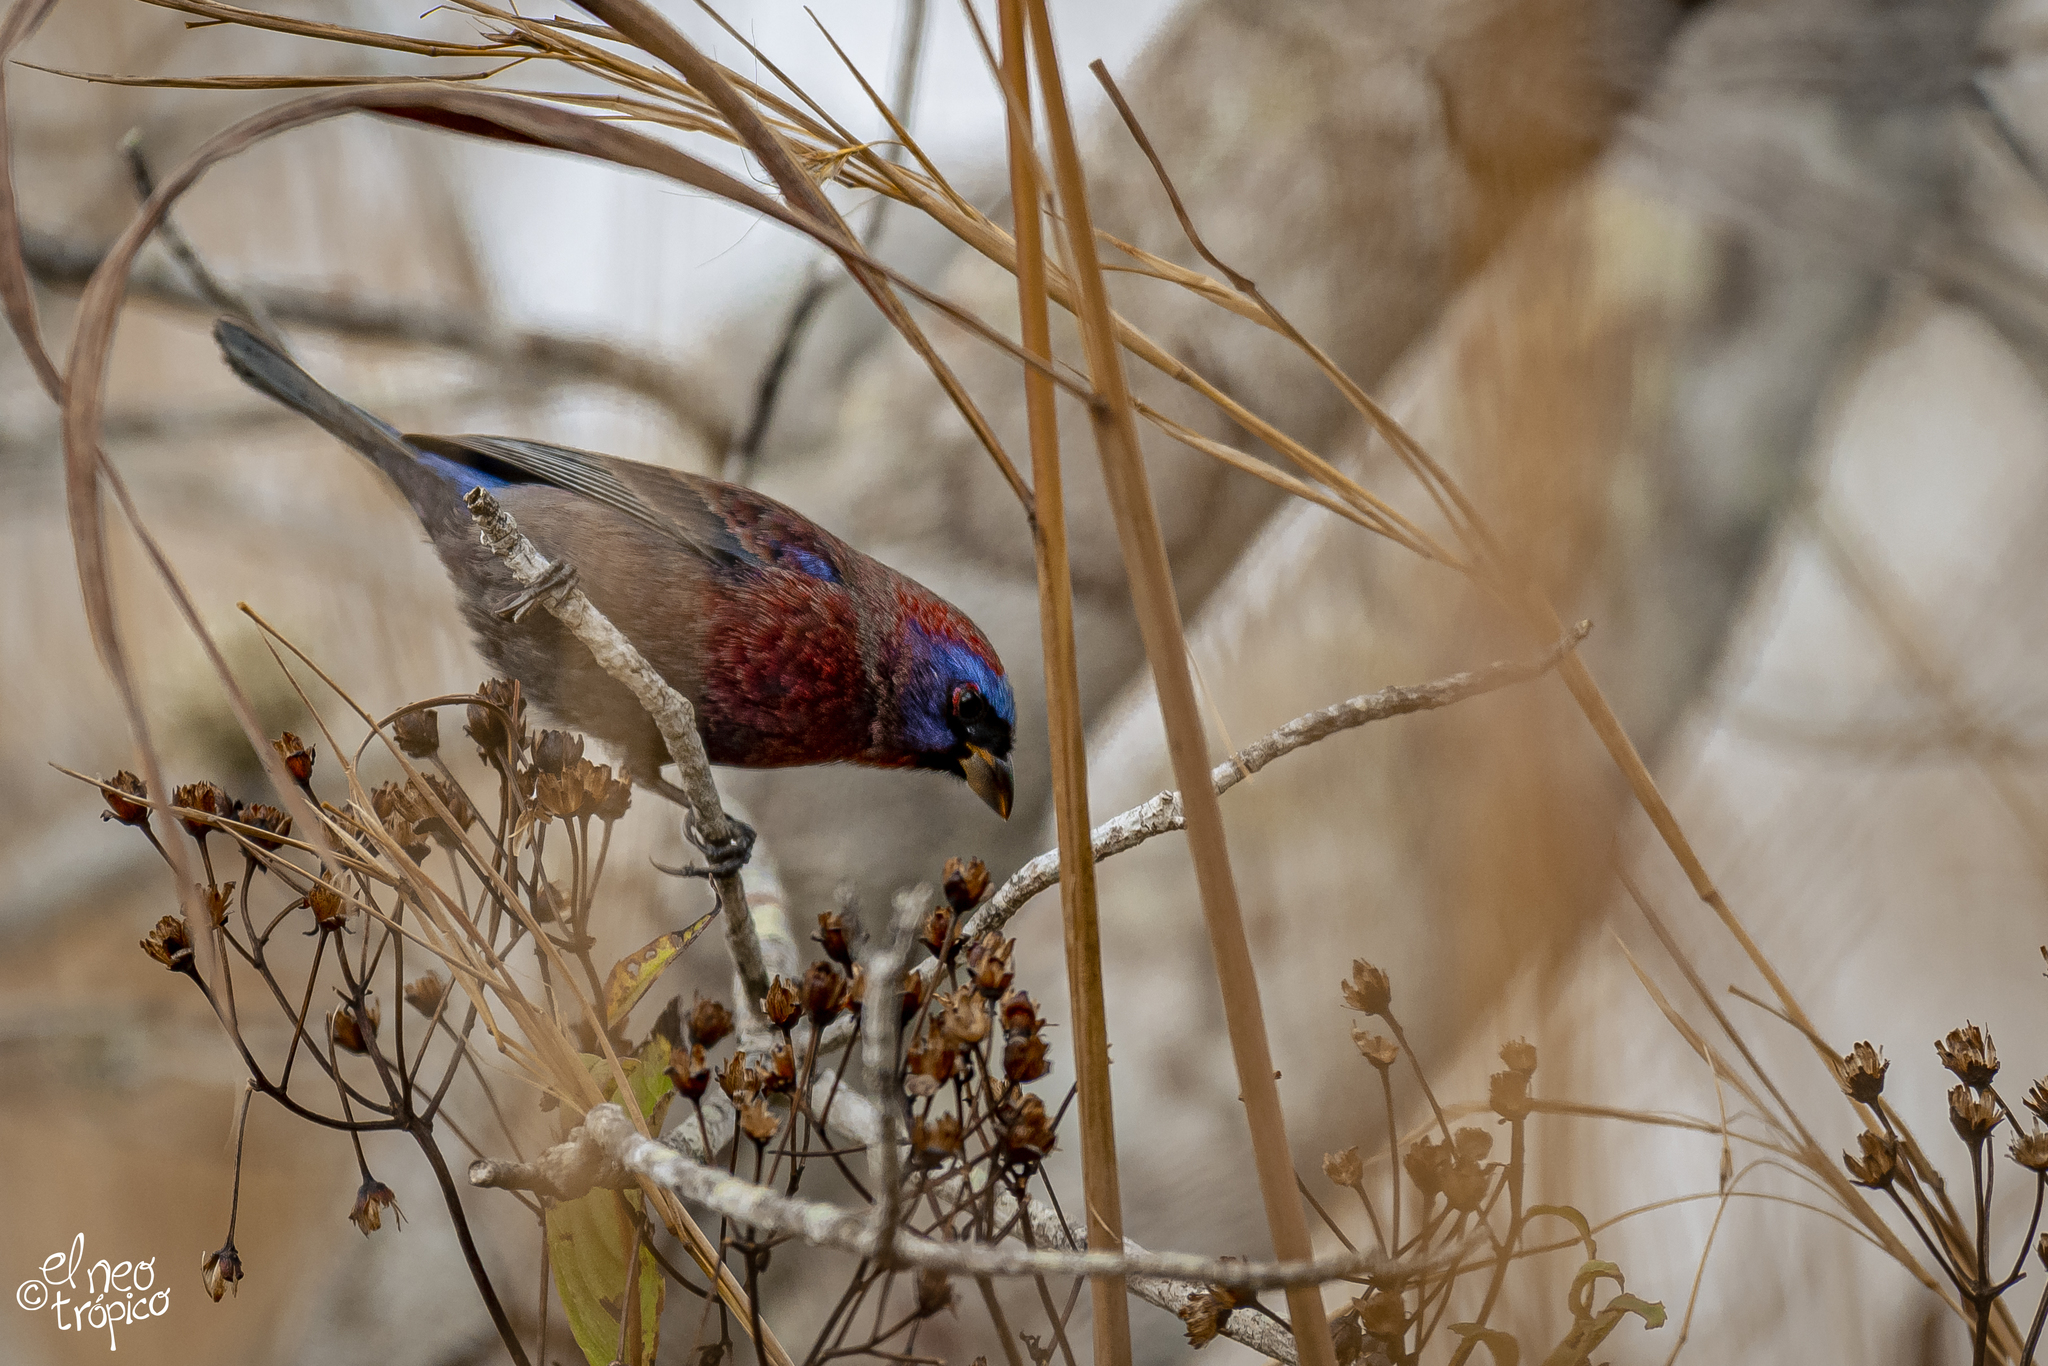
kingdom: Animalia
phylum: Chordata
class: Aves
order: Passeriformes
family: Cardinalidae
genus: Passerina
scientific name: Passerina versicolor
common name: Varied bunting
